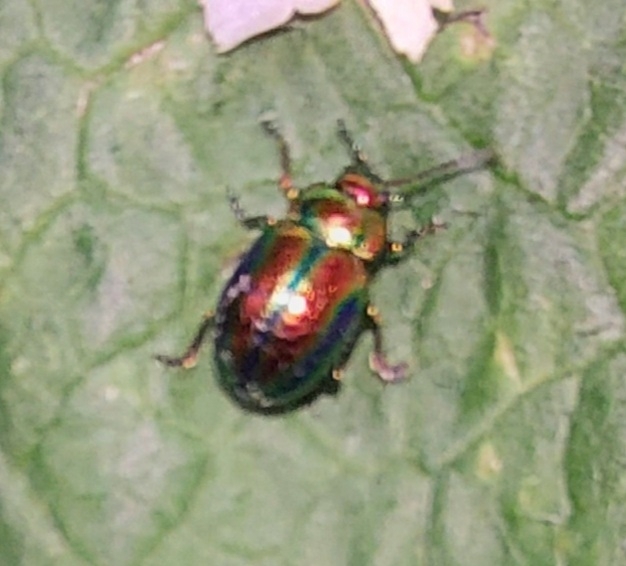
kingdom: Animalia
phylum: Arthropoda
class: Insecta
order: Coleoptera
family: Chrysomelidae
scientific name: Chrysomelidae
